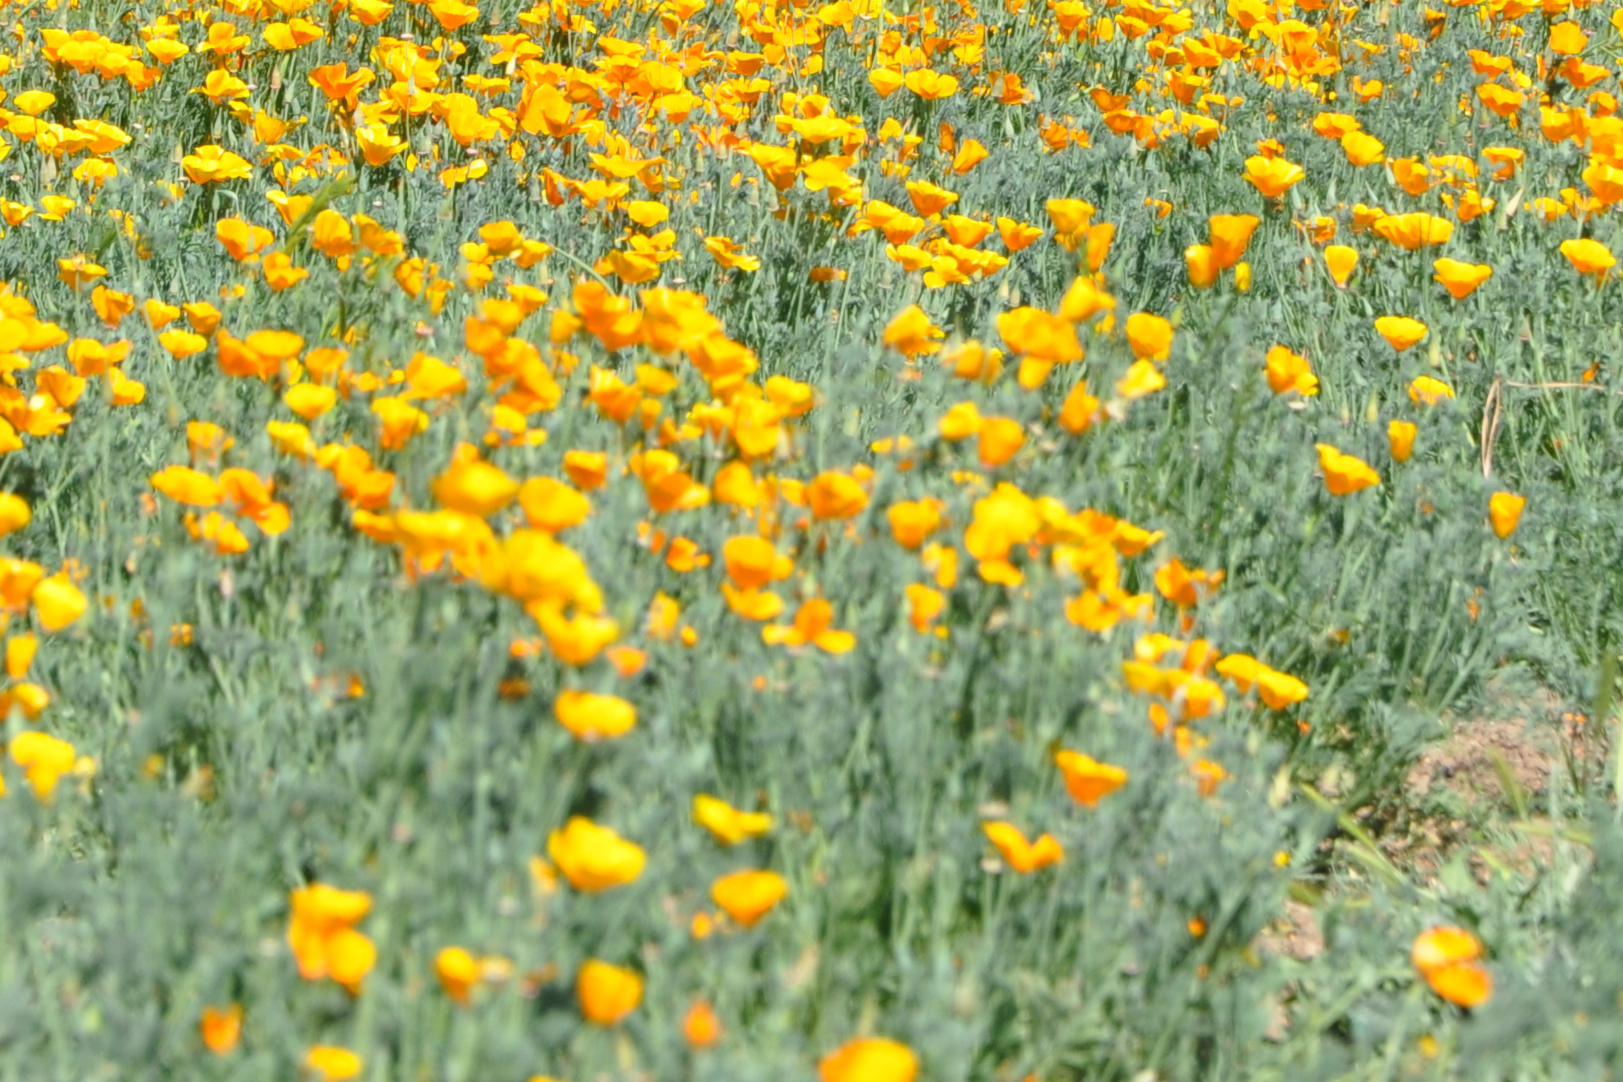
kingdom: Plantae
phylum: Tracheophyta
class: Magnoliopsida
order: Ranunculales
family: Papaveraceae
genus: Eschscholzia
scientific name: Eschscholzia californica
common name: California poppy
